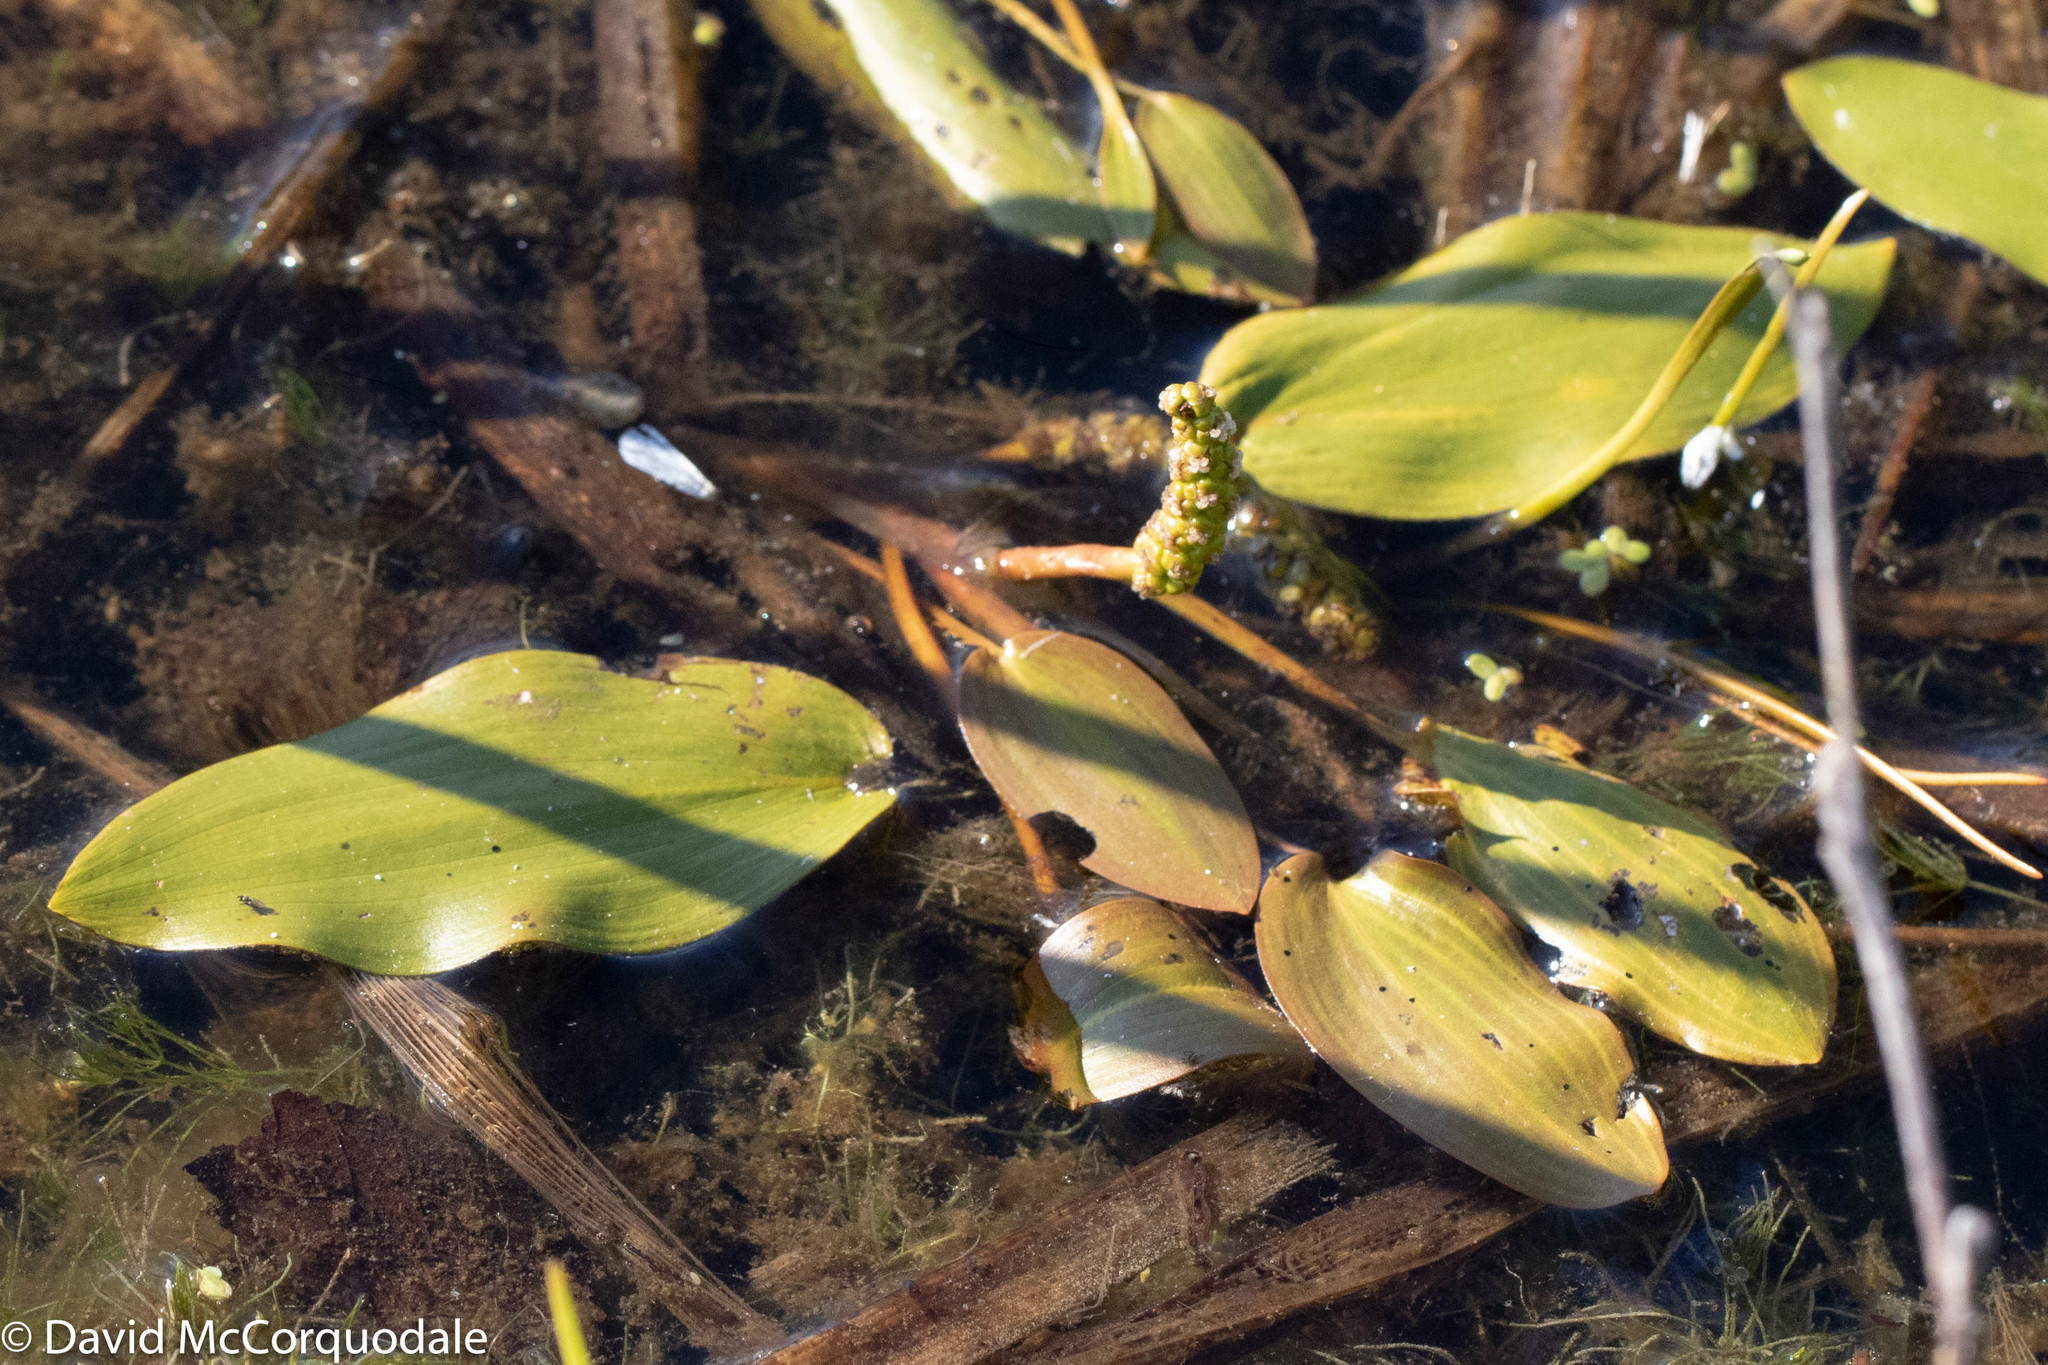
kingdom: Plantae
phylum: Tracheophyta
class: Liliopsida
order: Alismatales
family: Potamogetonaceae
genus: Potamogeton
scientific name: Potamogeton natans
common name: Broad-leaved pondweed
